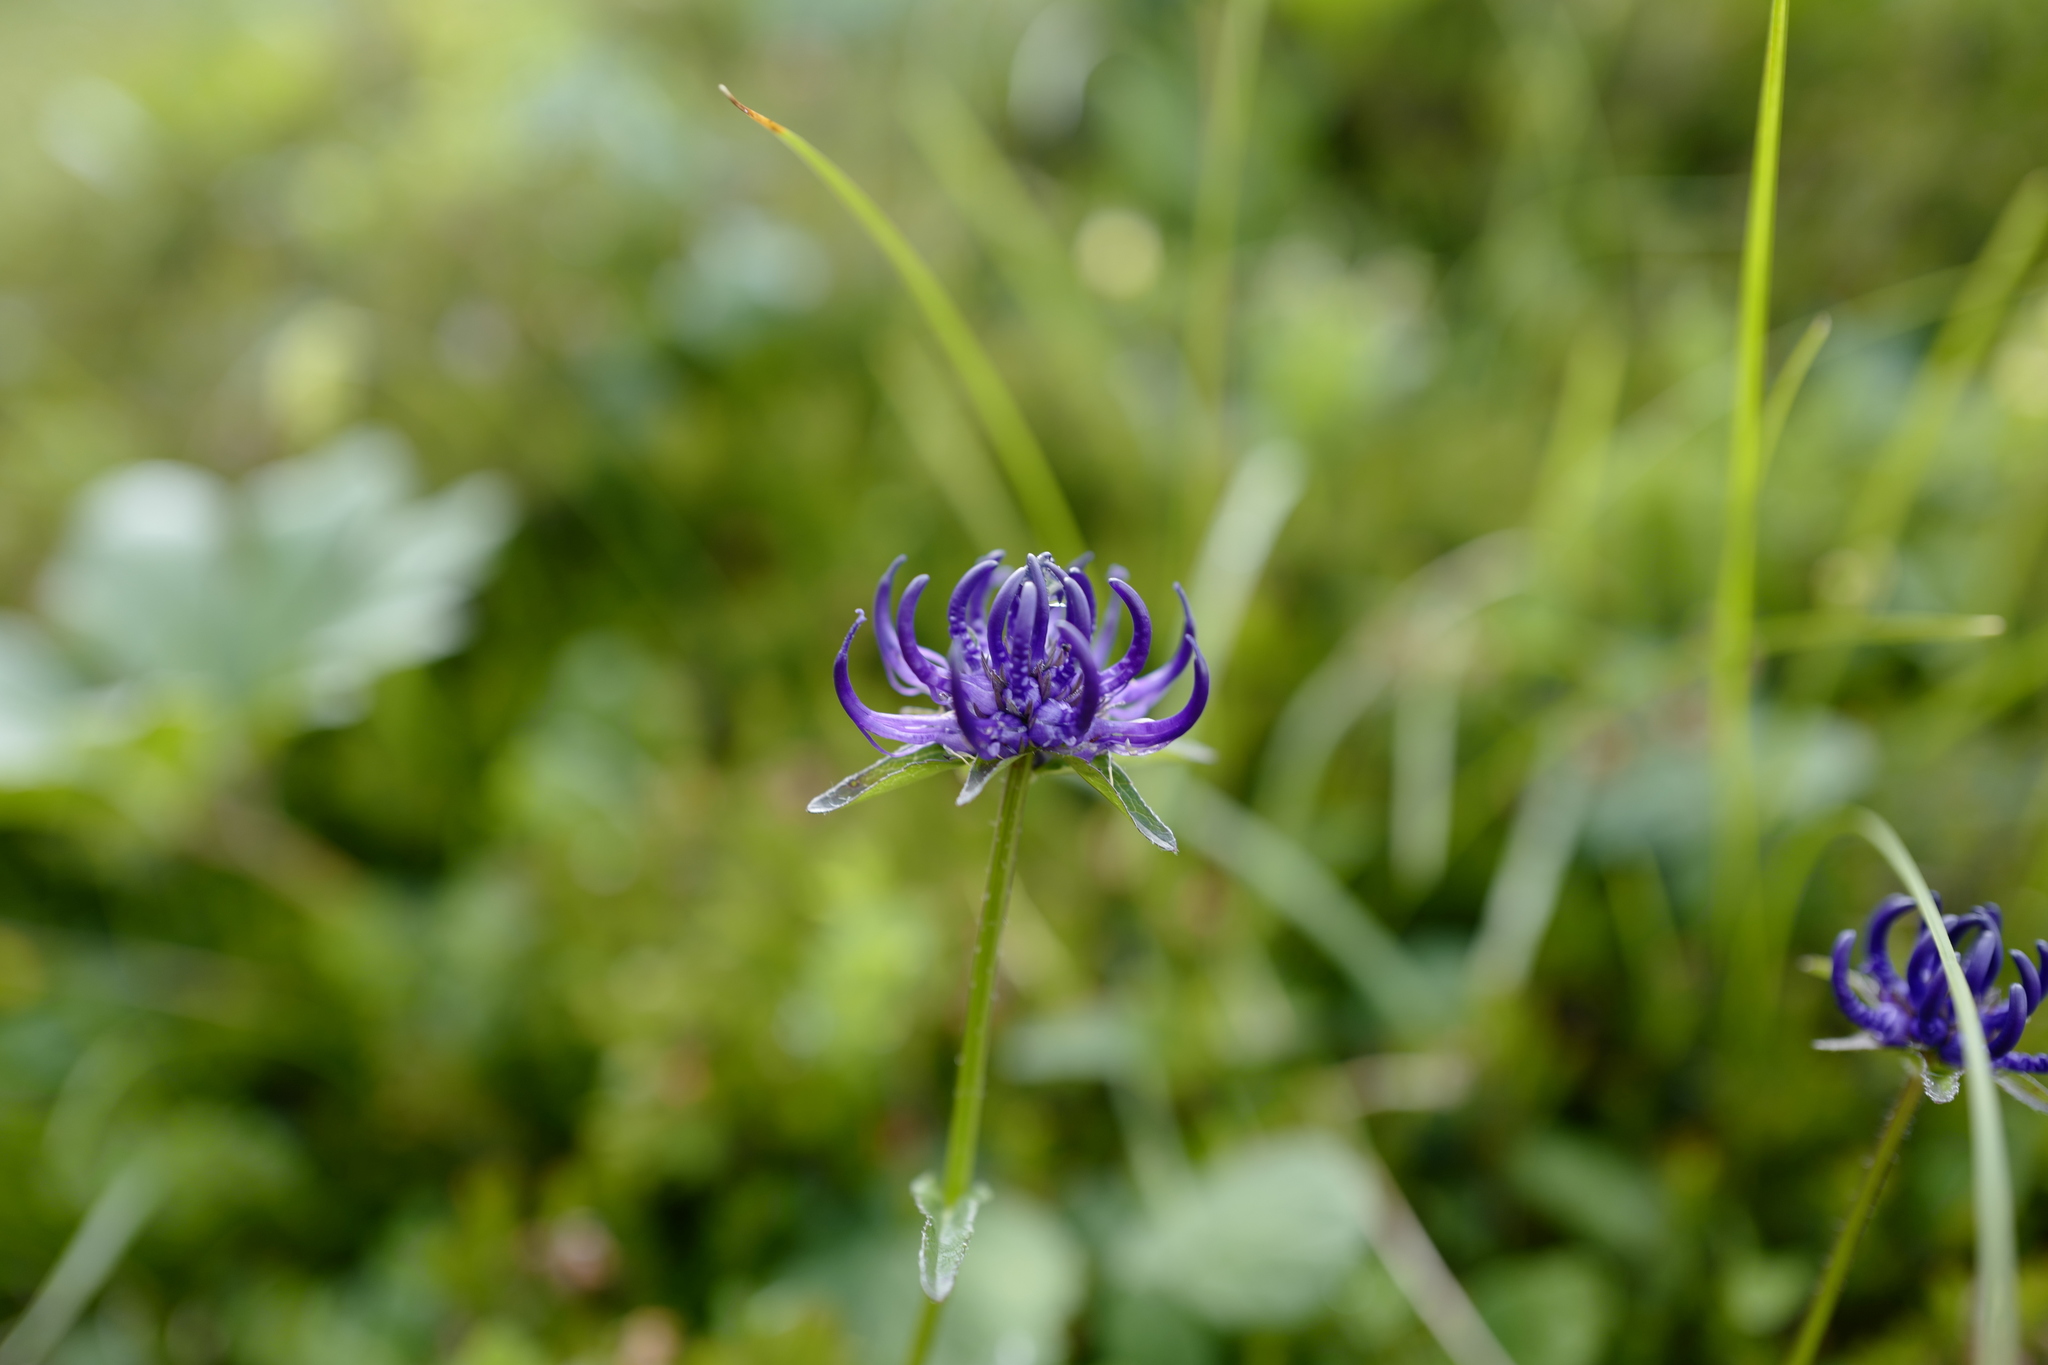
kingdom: Plantae
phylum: Tracheophyta
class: Magnoliopsida
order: Asterales
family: Campanulaceae
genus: Phyteuma
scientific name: Phyteuma orbiculare
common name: Round-headed rampion
